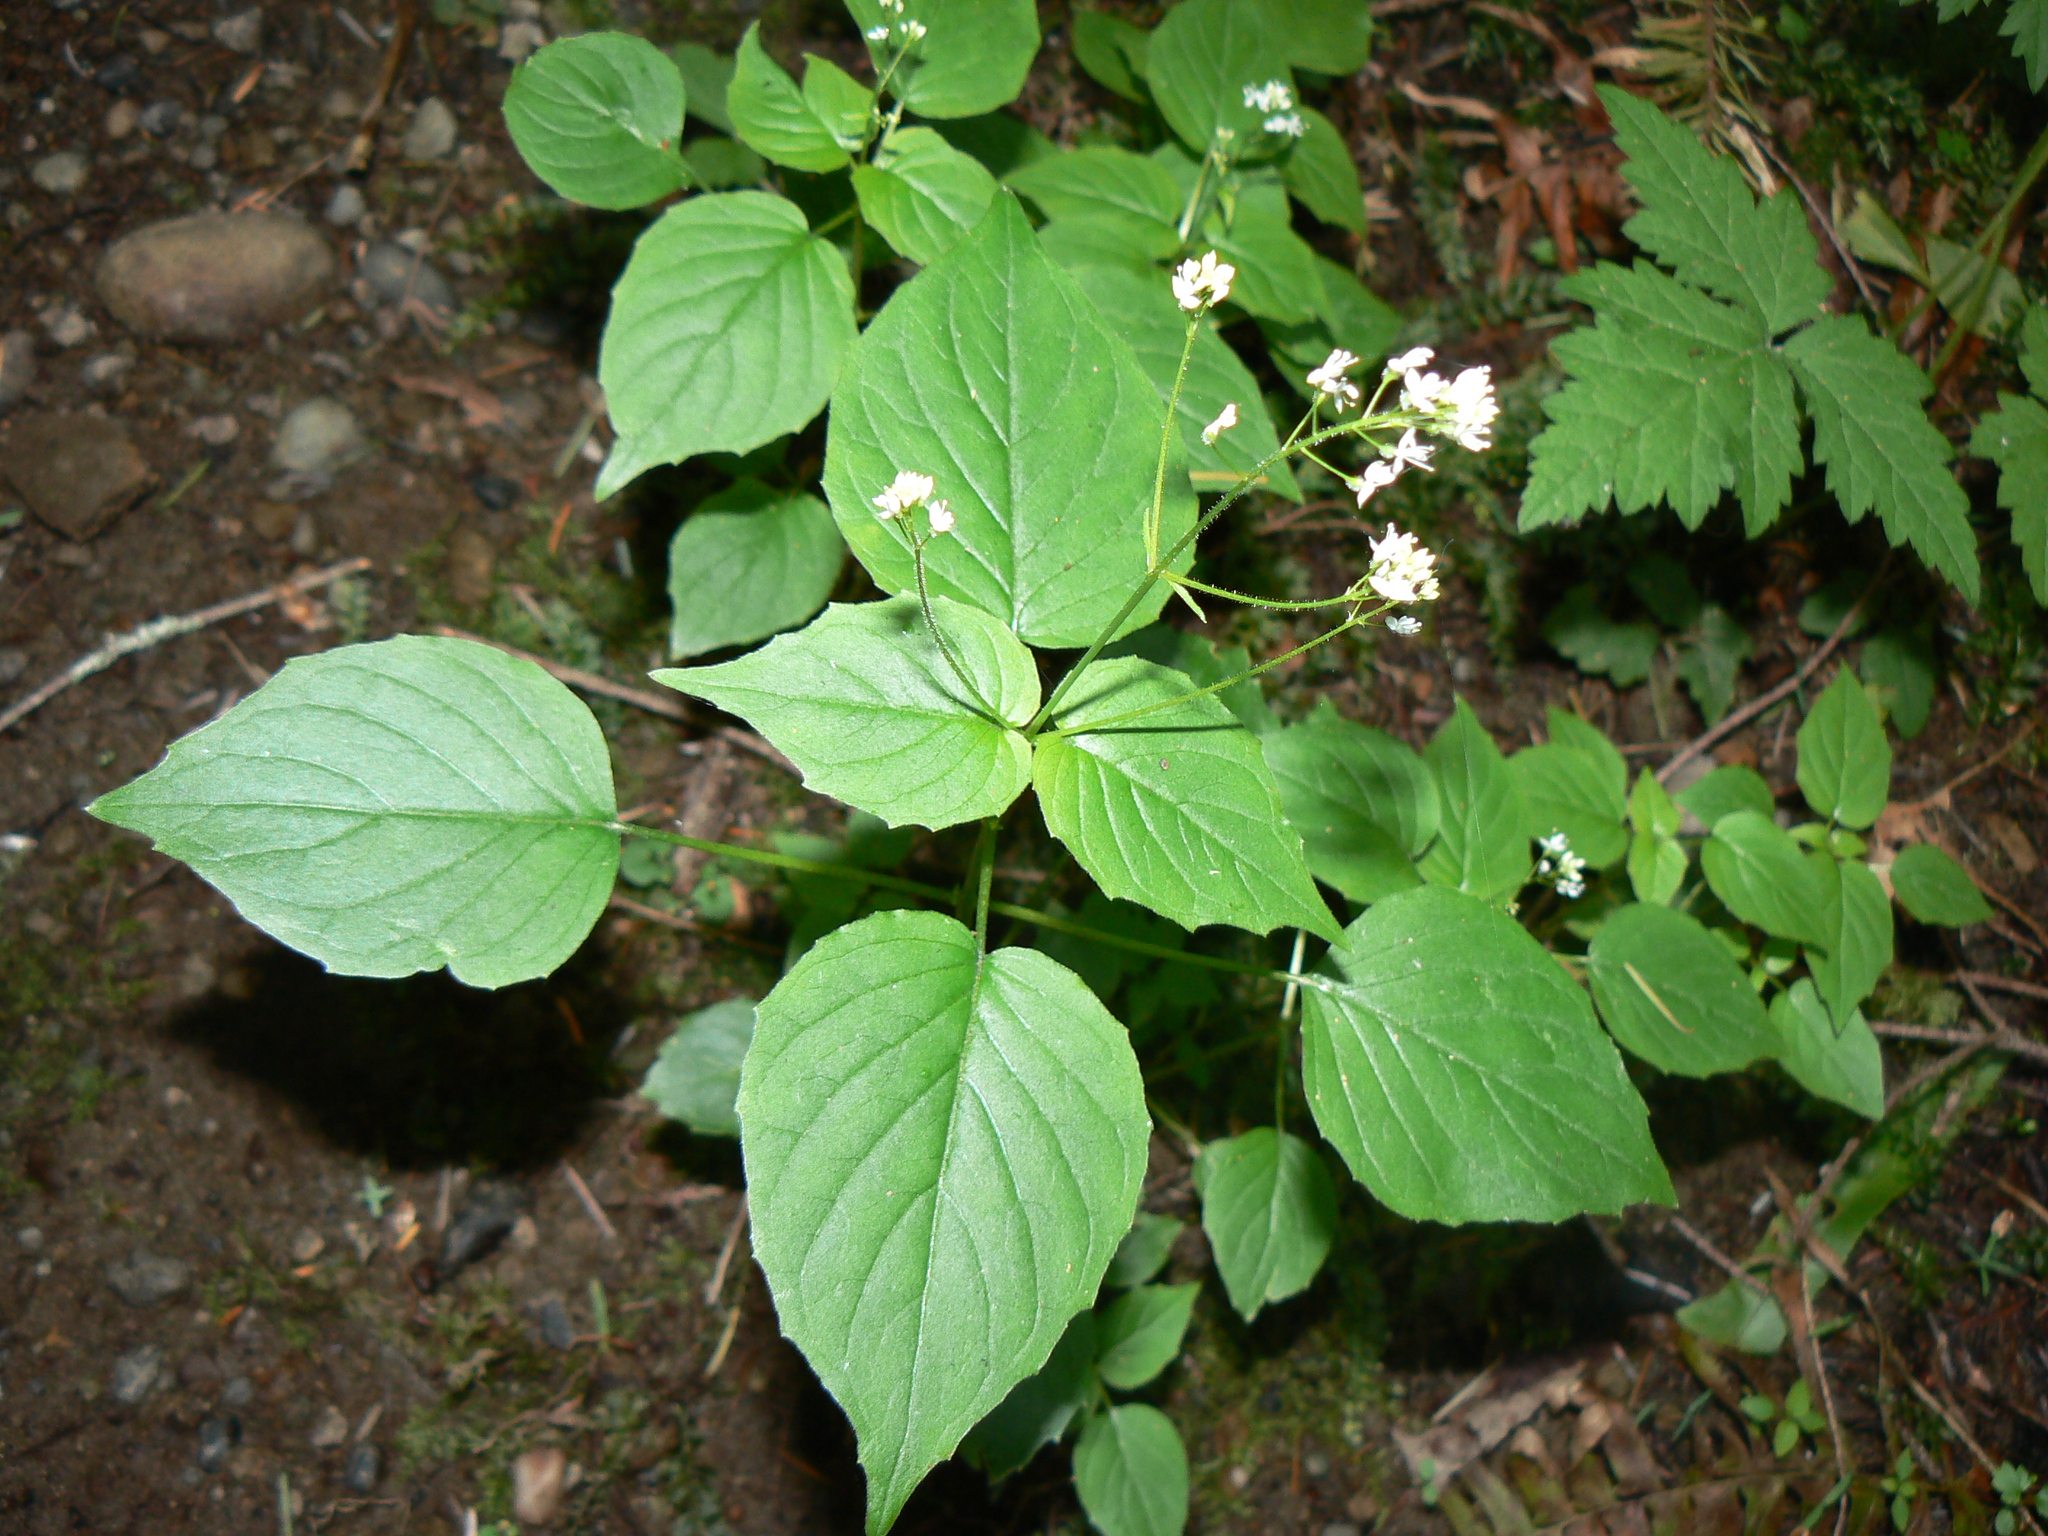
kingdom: Plantae
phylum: Tracheophyta
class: Magnoliopsida
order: Myrtales
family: Onagraceae
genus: Circaea
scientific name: Circaea alpina
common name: Alpine enchanter's-nightshade
